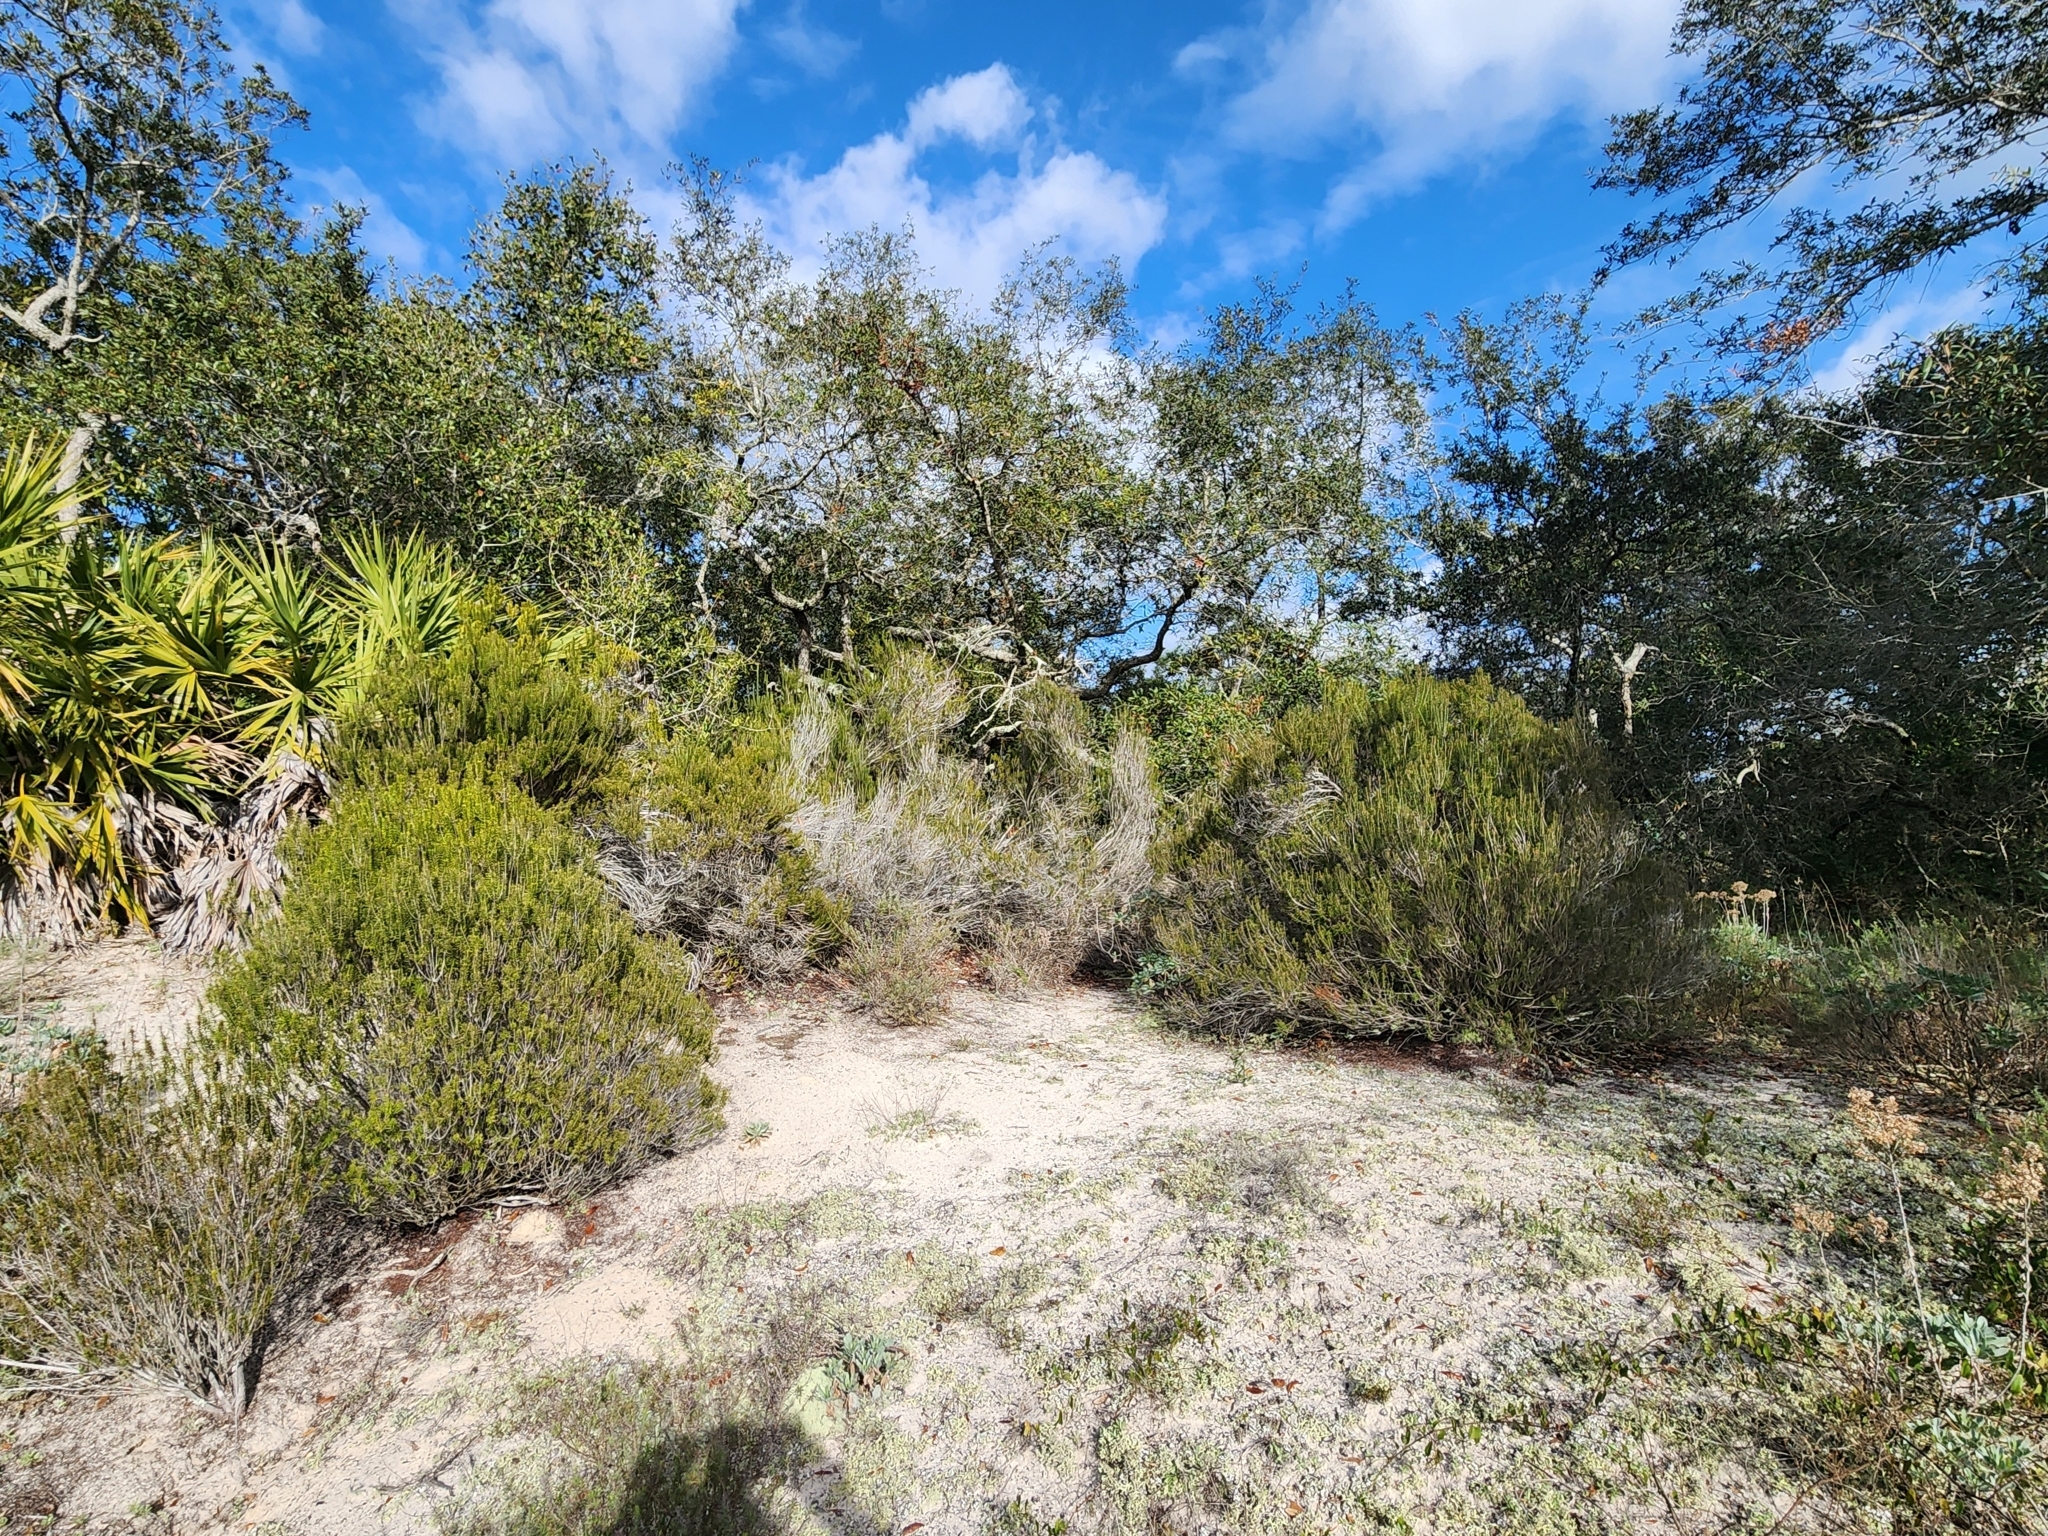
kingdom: Plantae
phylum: Tracheophyta
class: Magnoliopsida
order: Ericales
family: Ericaceae
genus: Ceratiola
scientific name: Ceratiola ericoides
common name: Sandhill-rosemary
